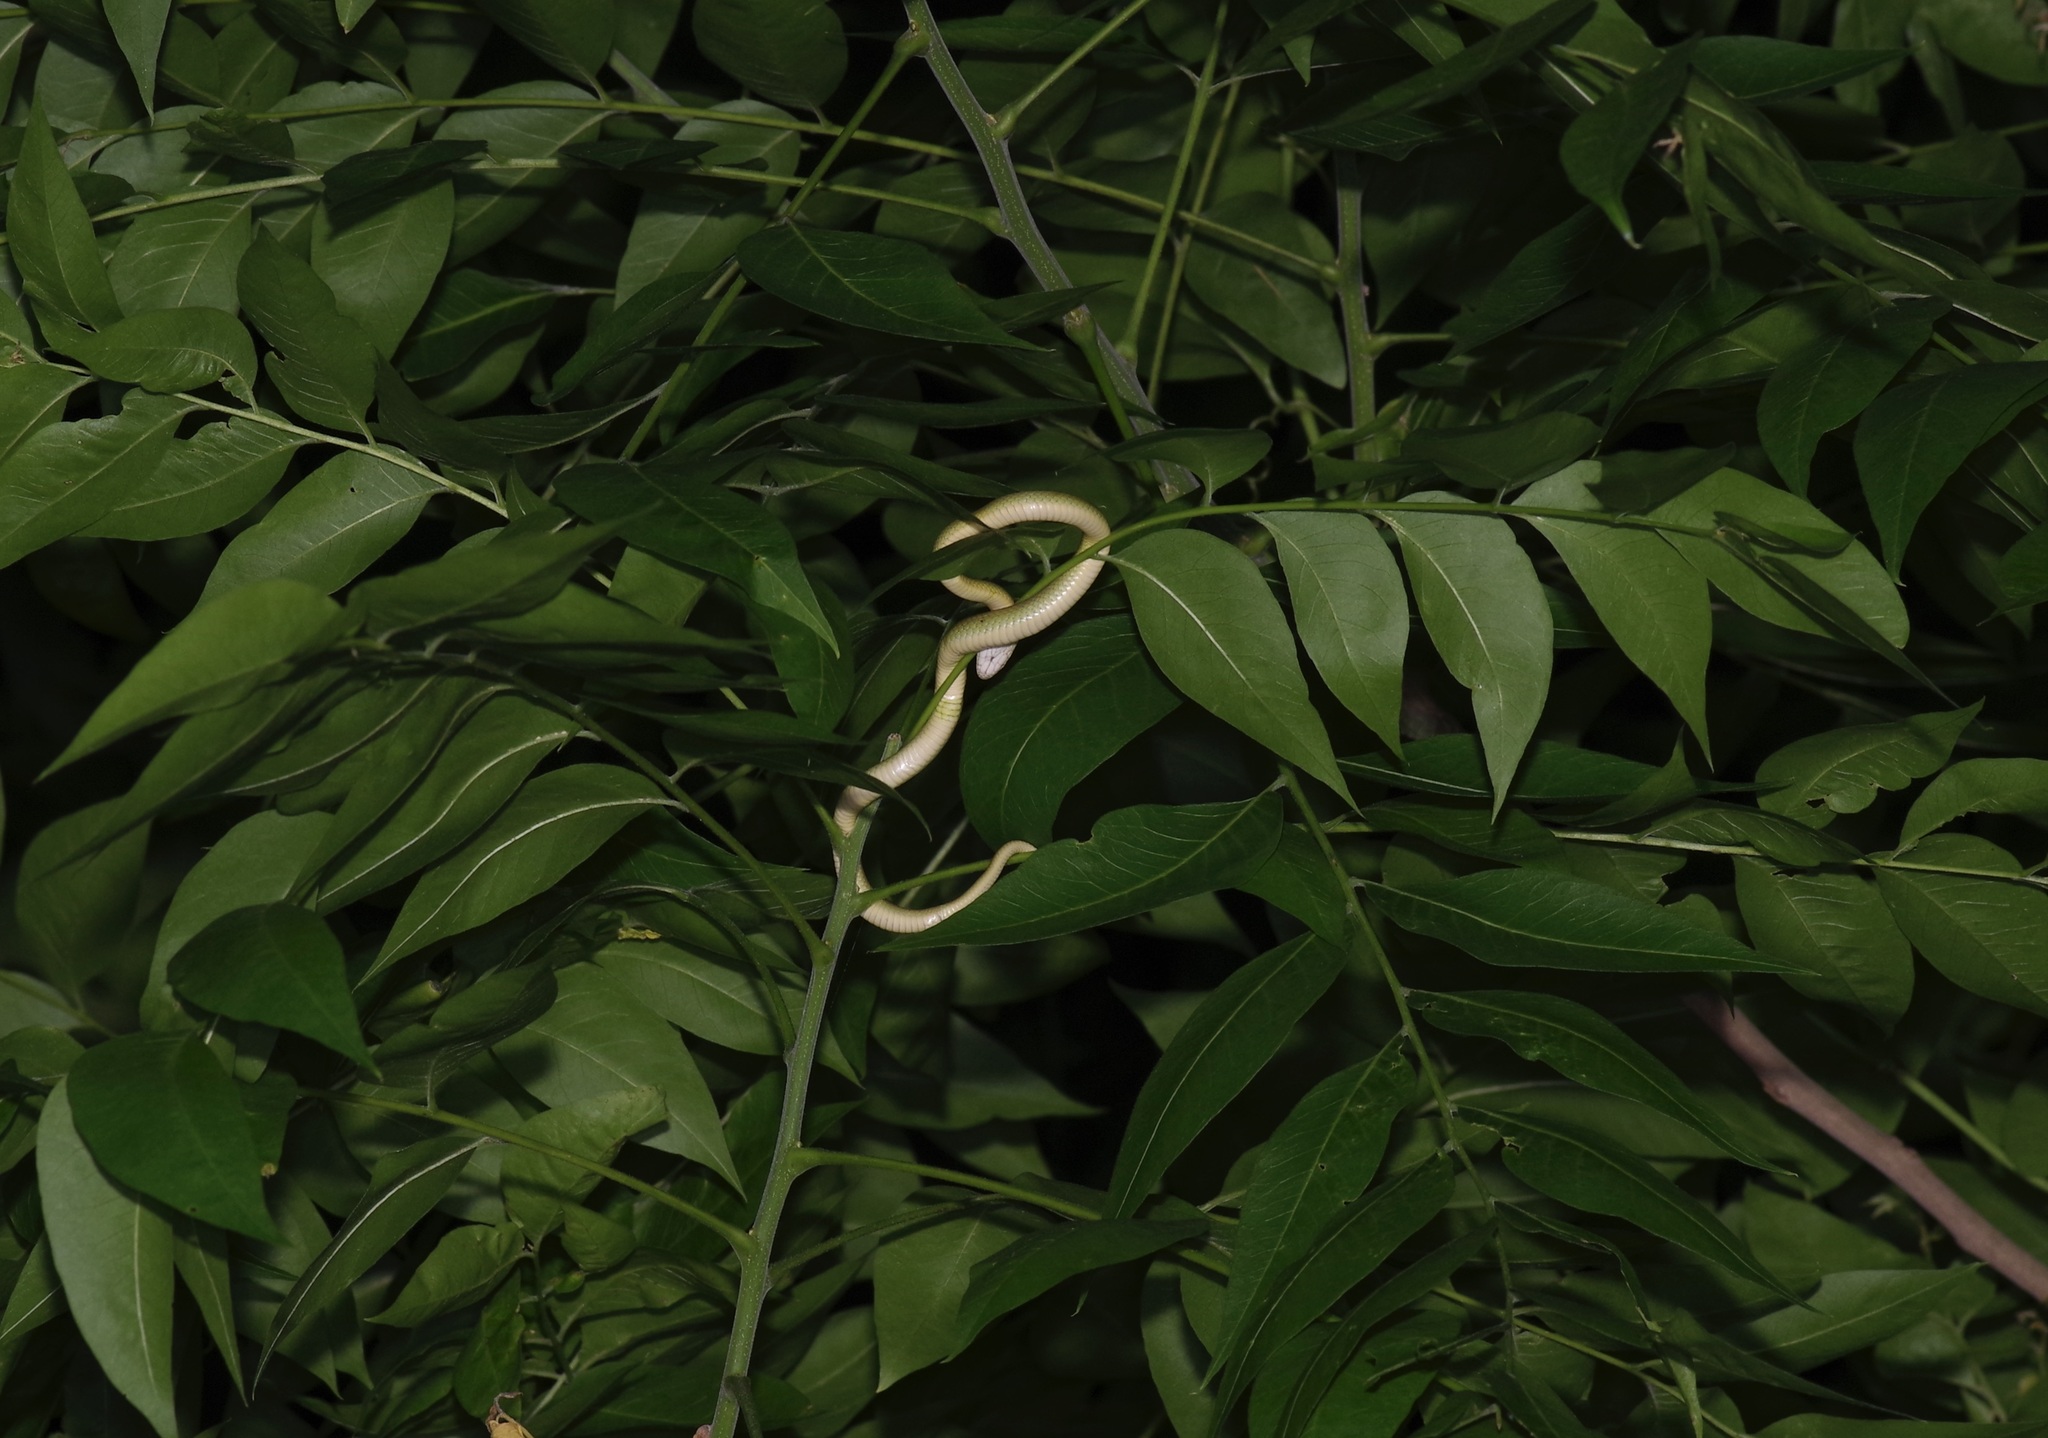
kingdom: Animalia
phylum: Chordata
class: Squamata
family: Colubridae
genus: Opheodrys
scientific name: Opheodrys aestivus
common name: Rough greensnake
